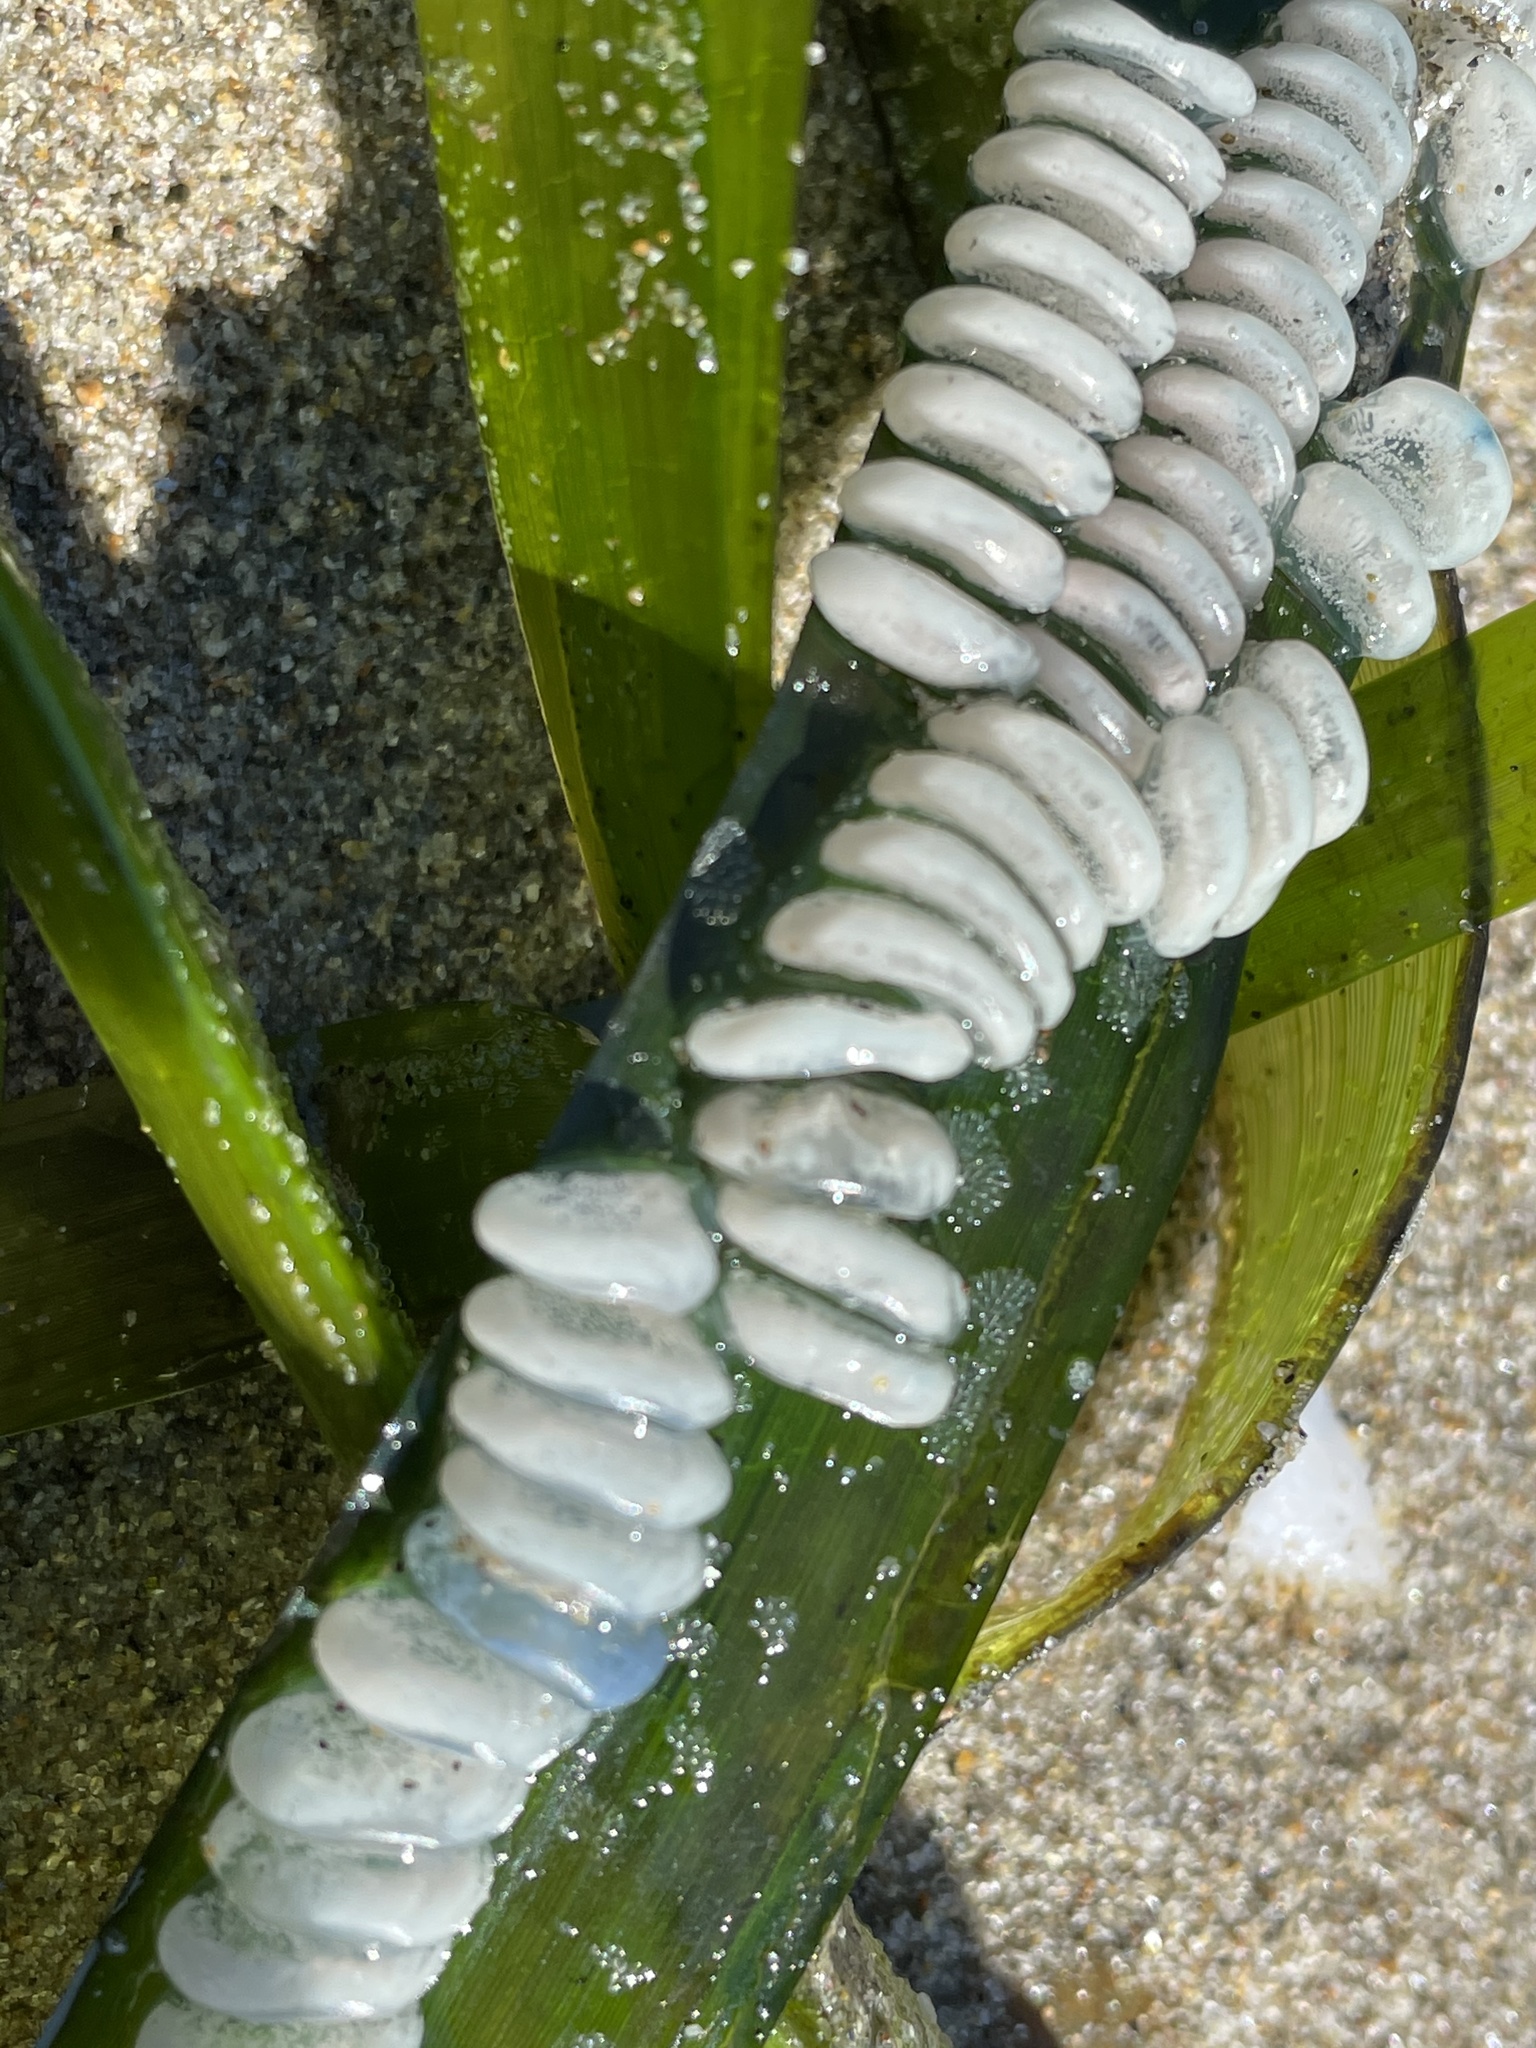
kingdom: Animalia
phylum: Mollusca
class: Gastropoda
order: Neogastropoda
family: Conidae
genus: Californiconus
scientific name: Californiconus californicus
